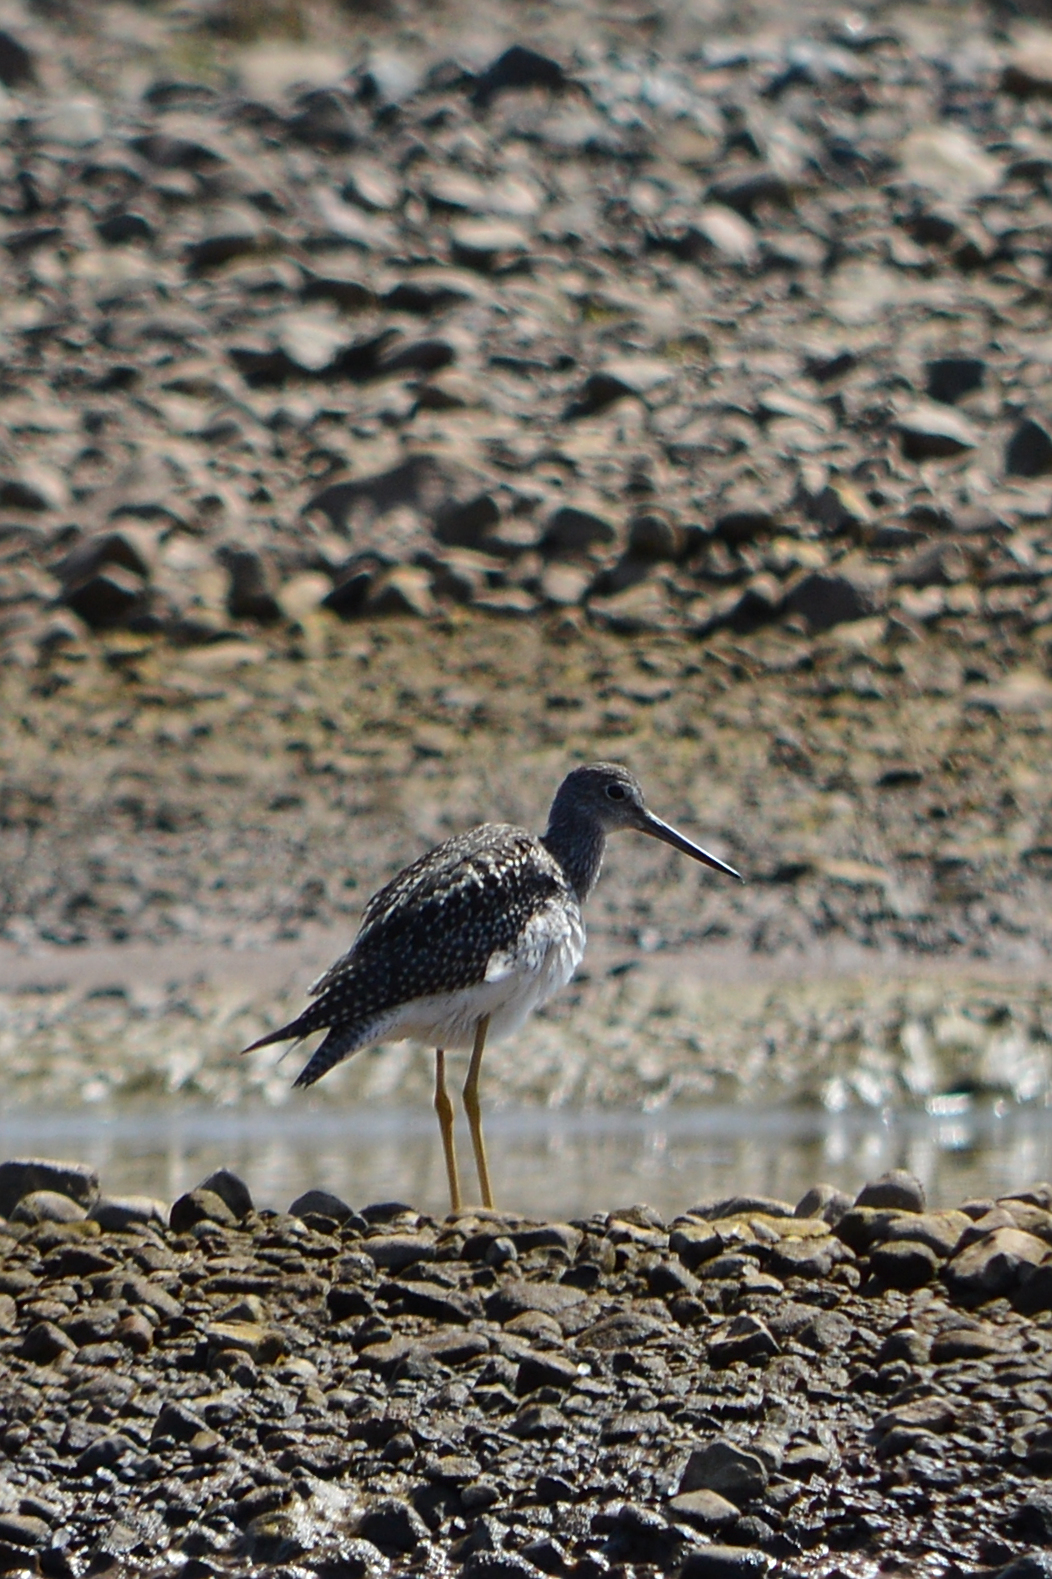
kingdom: Animalia
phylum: Chordata
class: Aves
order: Charadriiformes
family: Scolopacidae
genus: Tringa
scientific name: Tringa melanoleuca
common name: Greater yellowlegs
